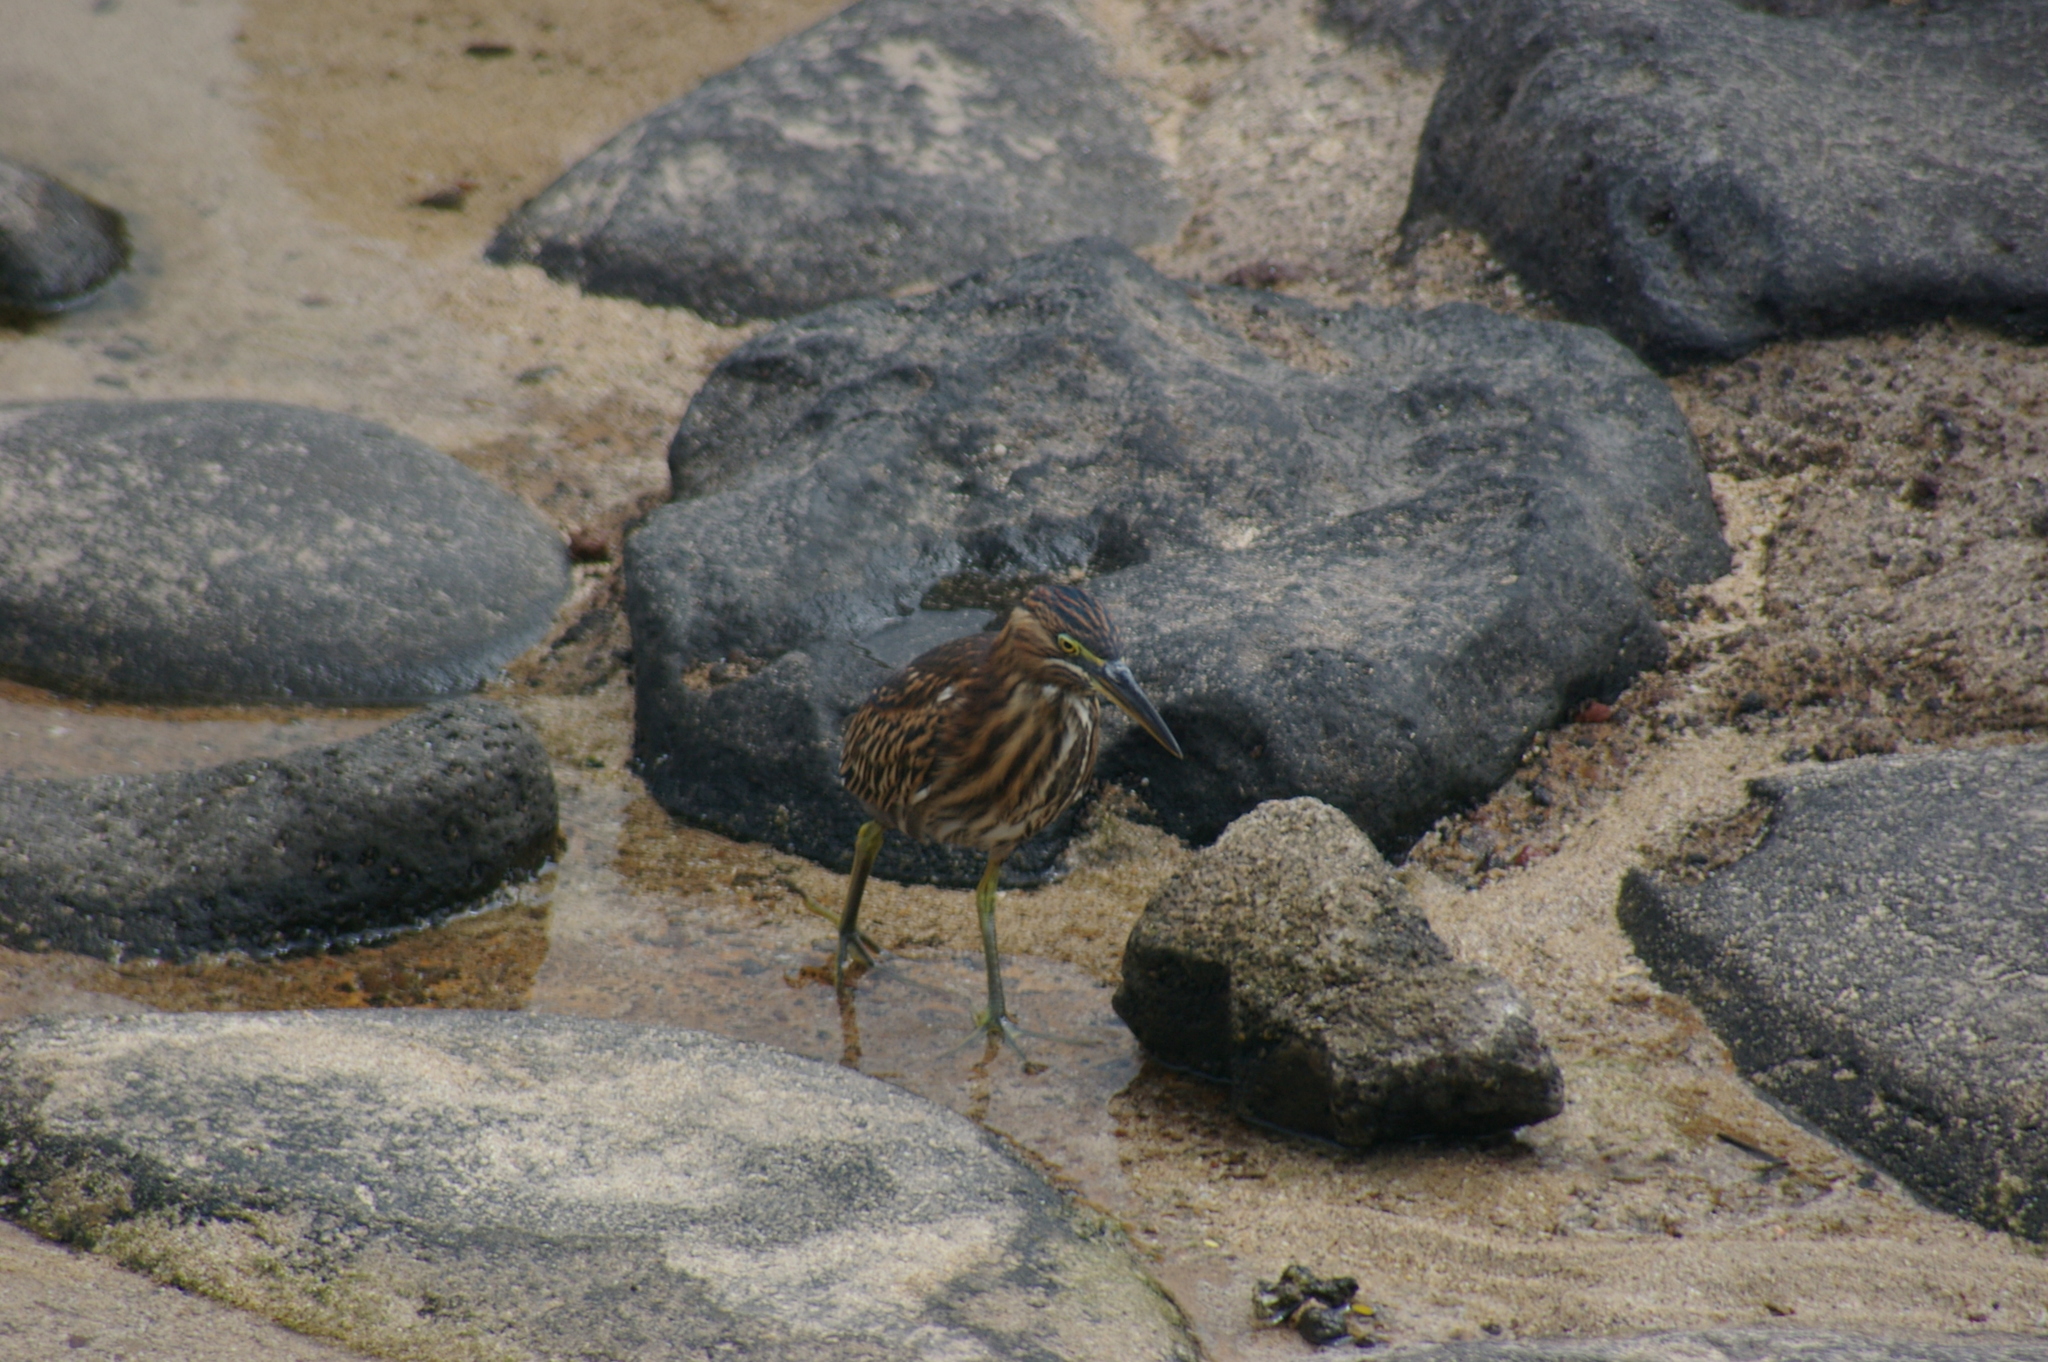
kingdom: Animalia
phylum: Chordata
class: Aves
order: Pelecaniformes
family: Ardeidae
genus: Butorides
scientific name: Butorides striata
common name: Striated heron
